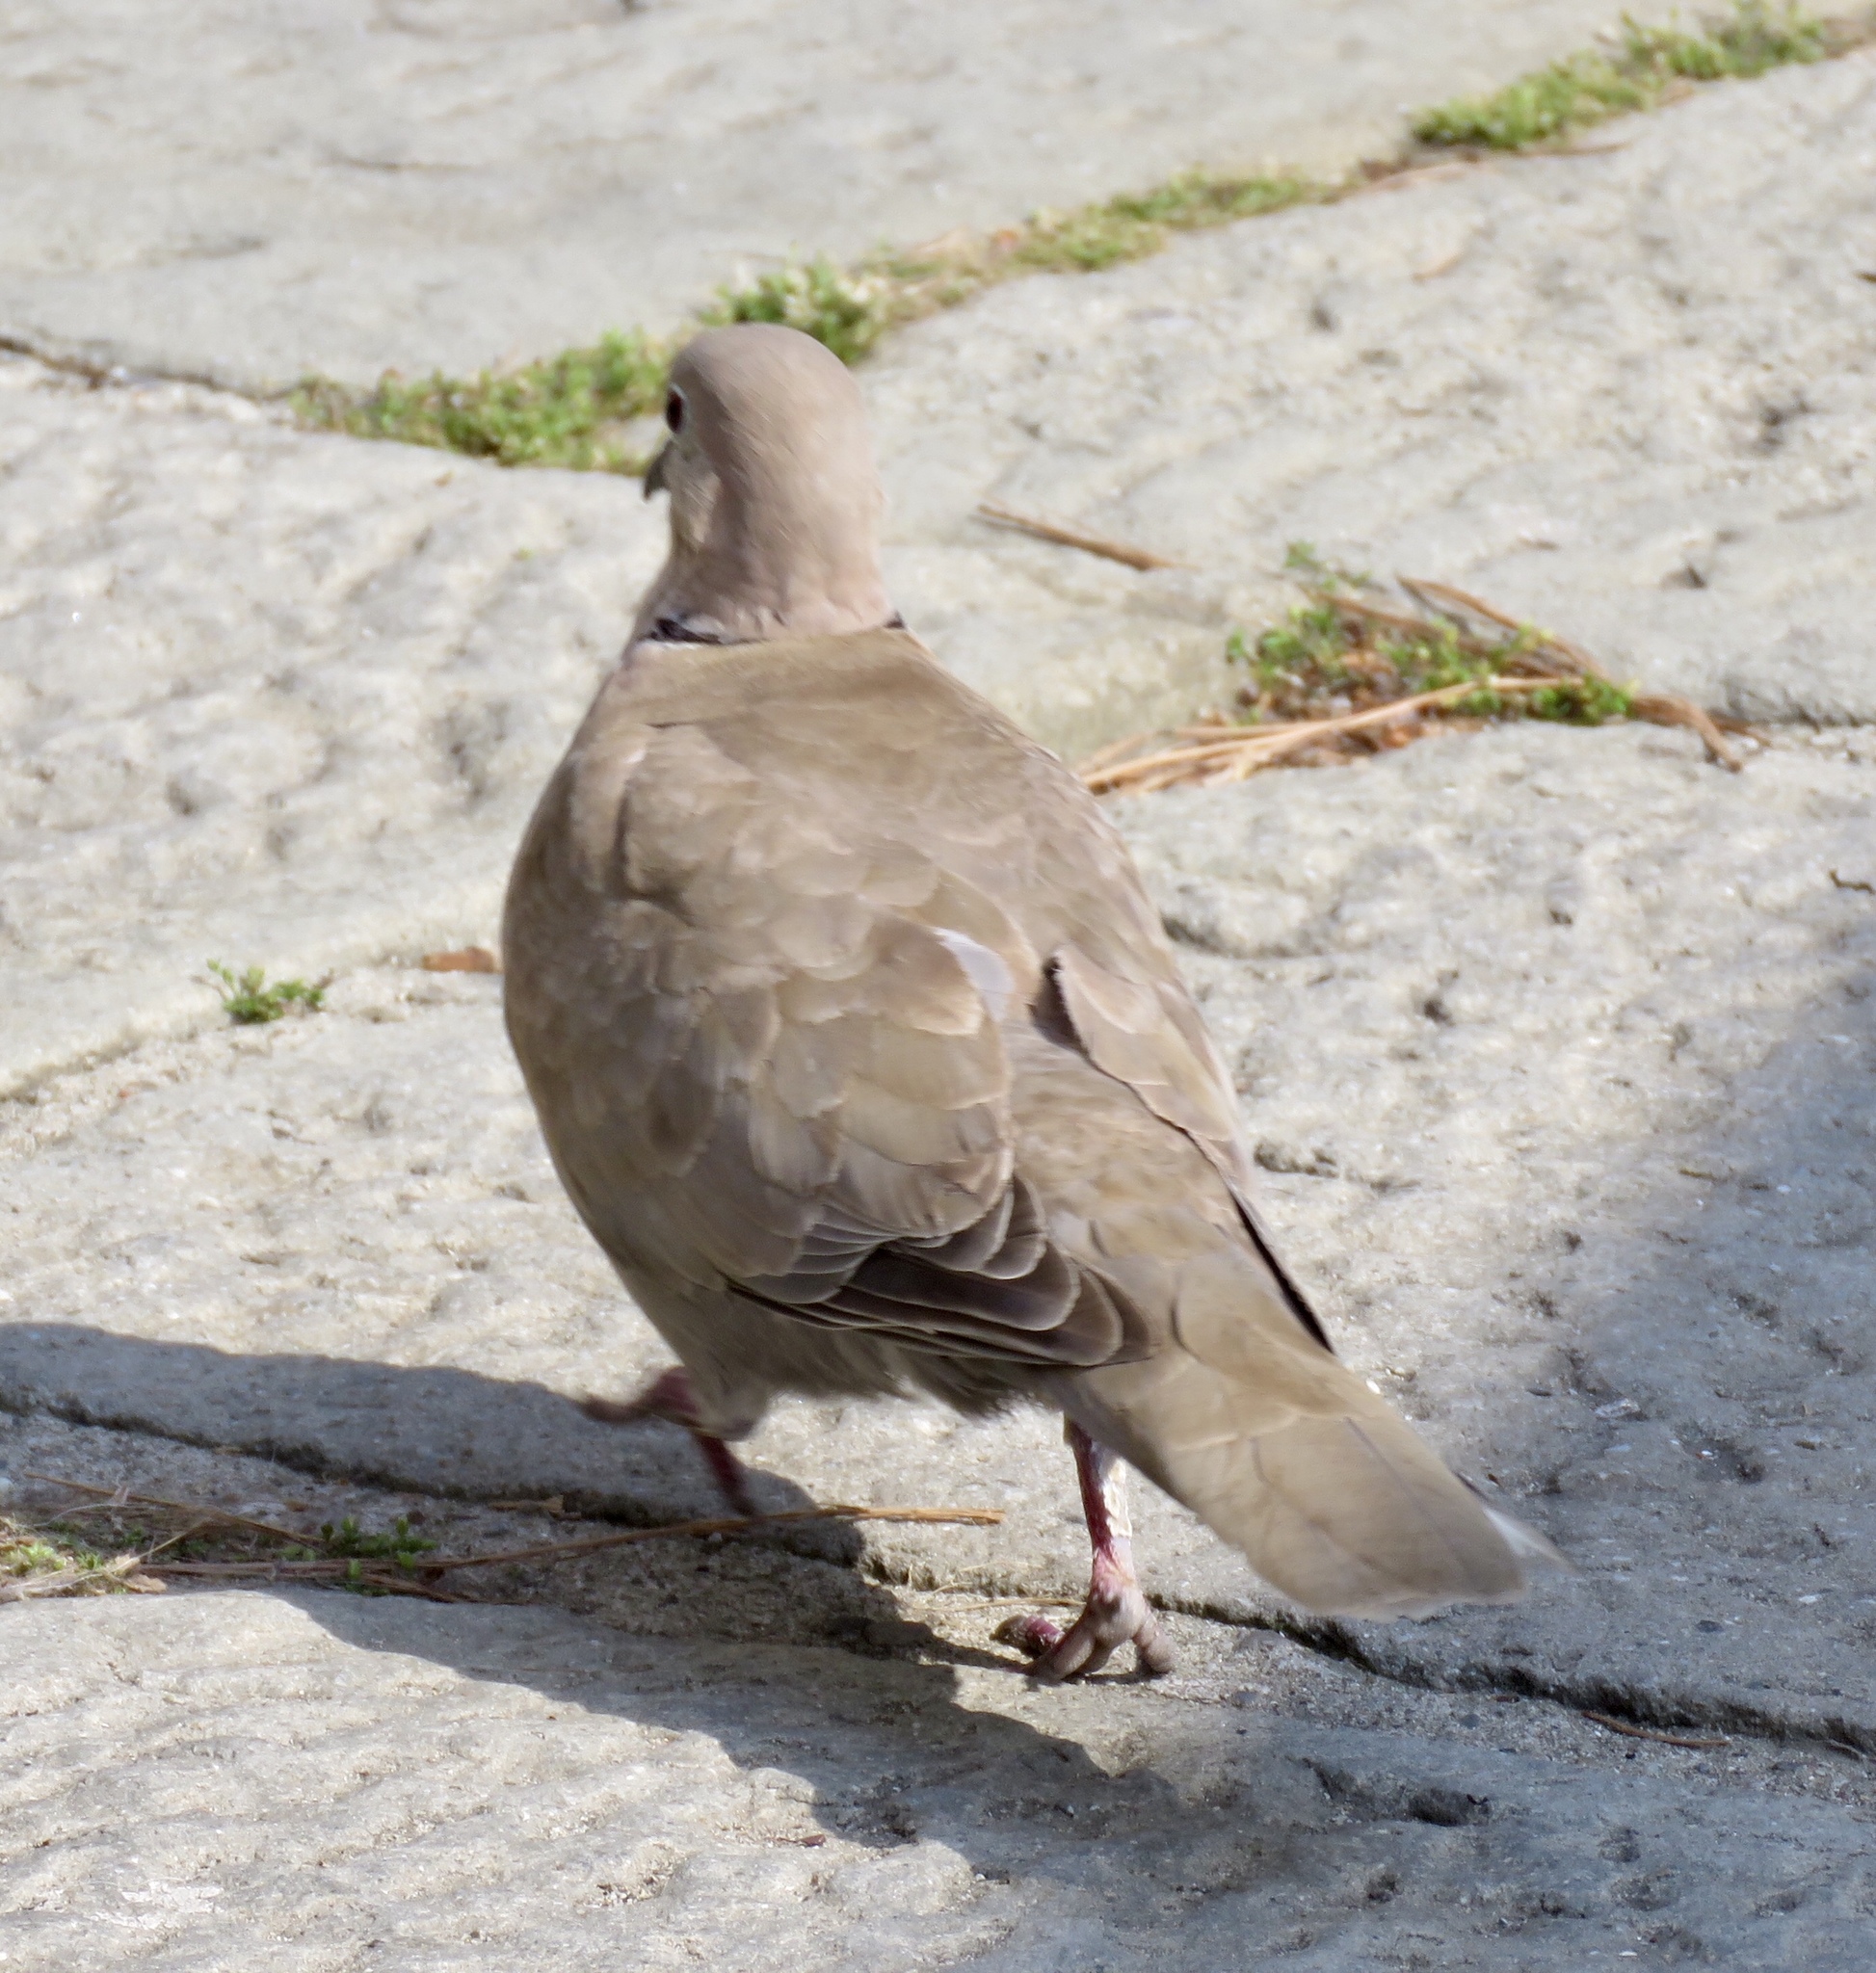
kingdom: Animalia
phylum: Chordata
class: Aves
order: Columbiformes
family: Columbidae
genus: Streptopelia
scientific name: Streptopelia decaocto
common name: Eurasian collared dove
